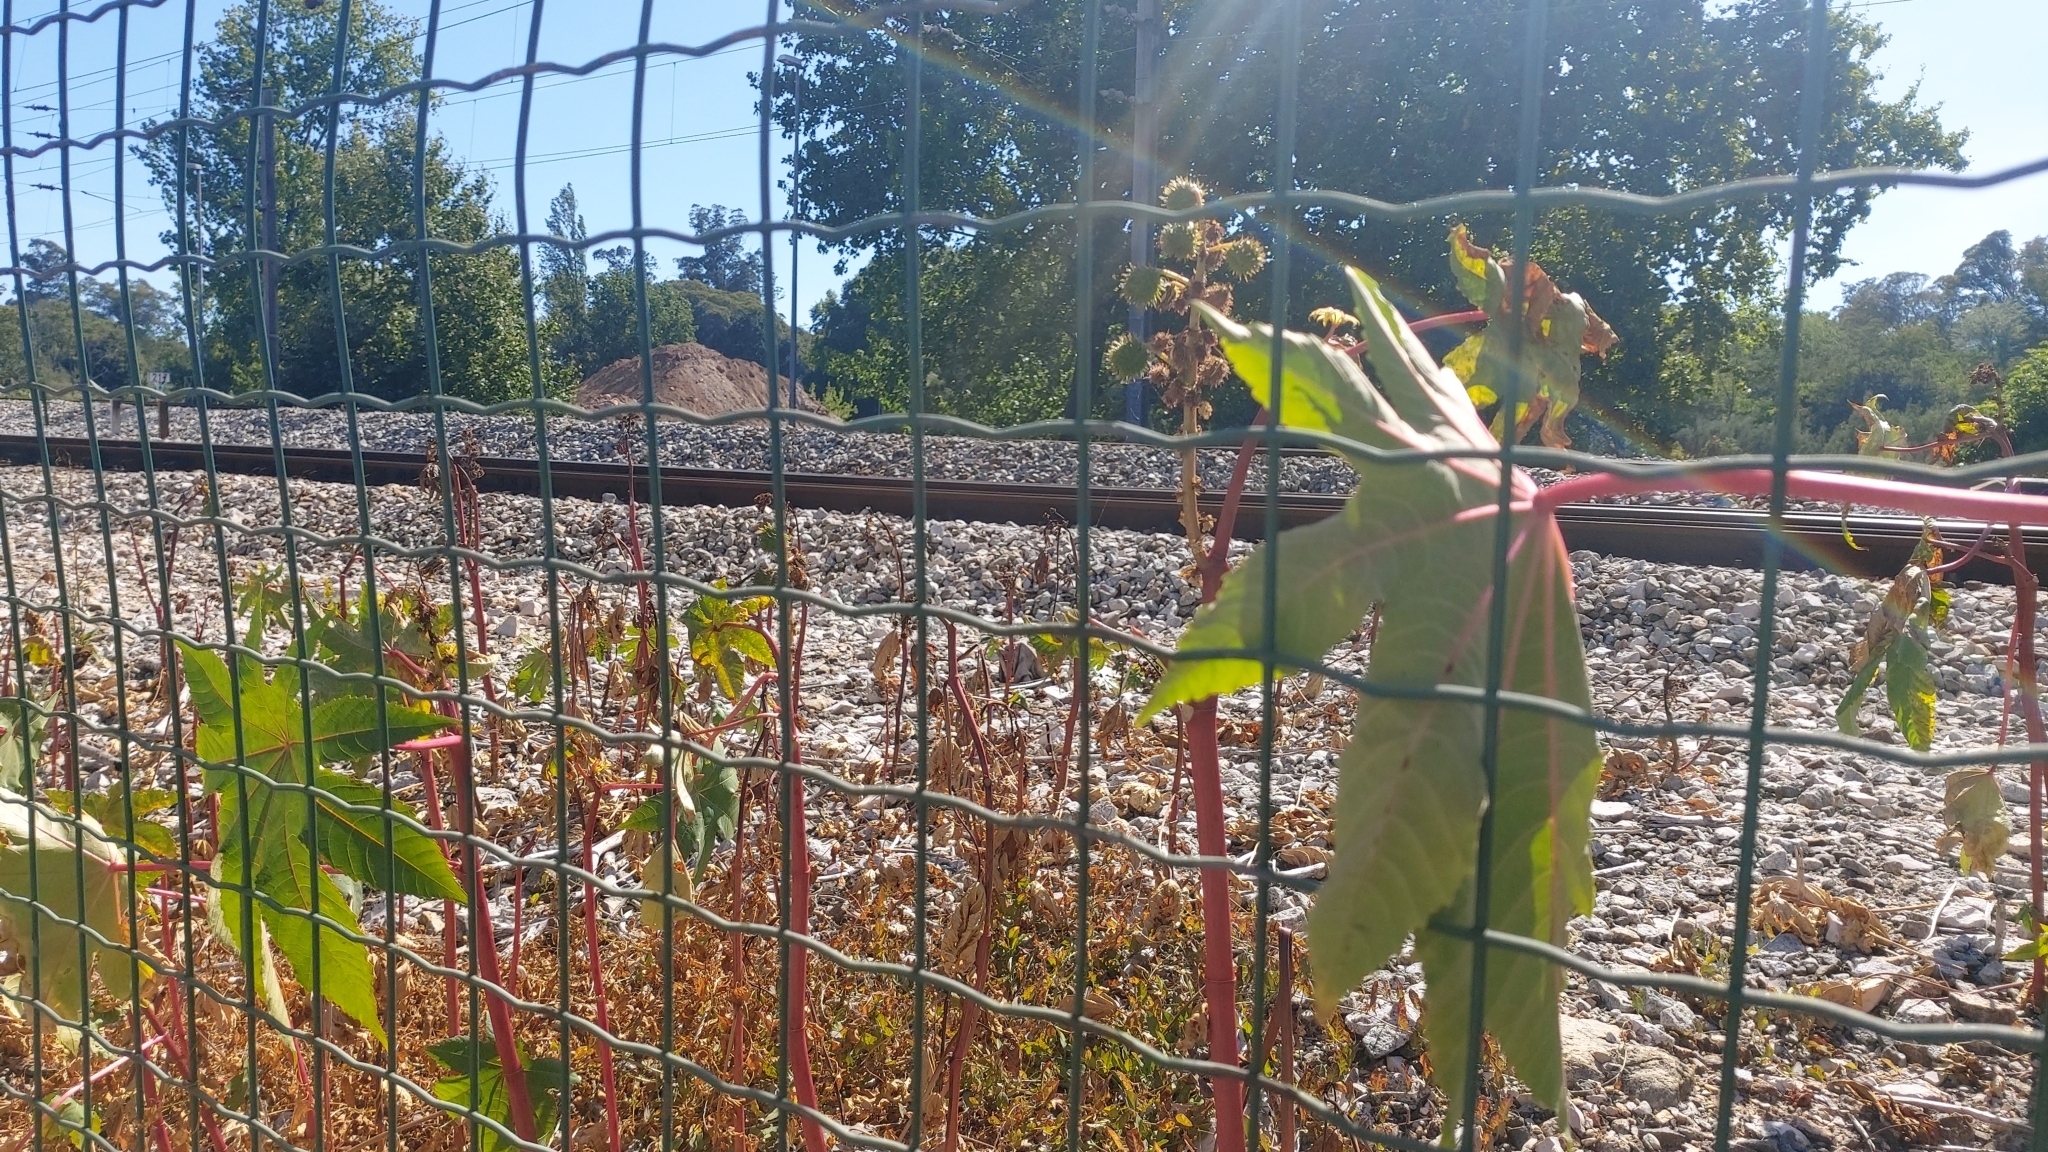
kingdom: Plantae
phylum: Tracheophyta
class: Magnoliopsida
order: Malpighiales
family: Euphorbiaceae
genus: Ricinus
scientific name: Ricinus communis
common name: Castor-oil-plant
